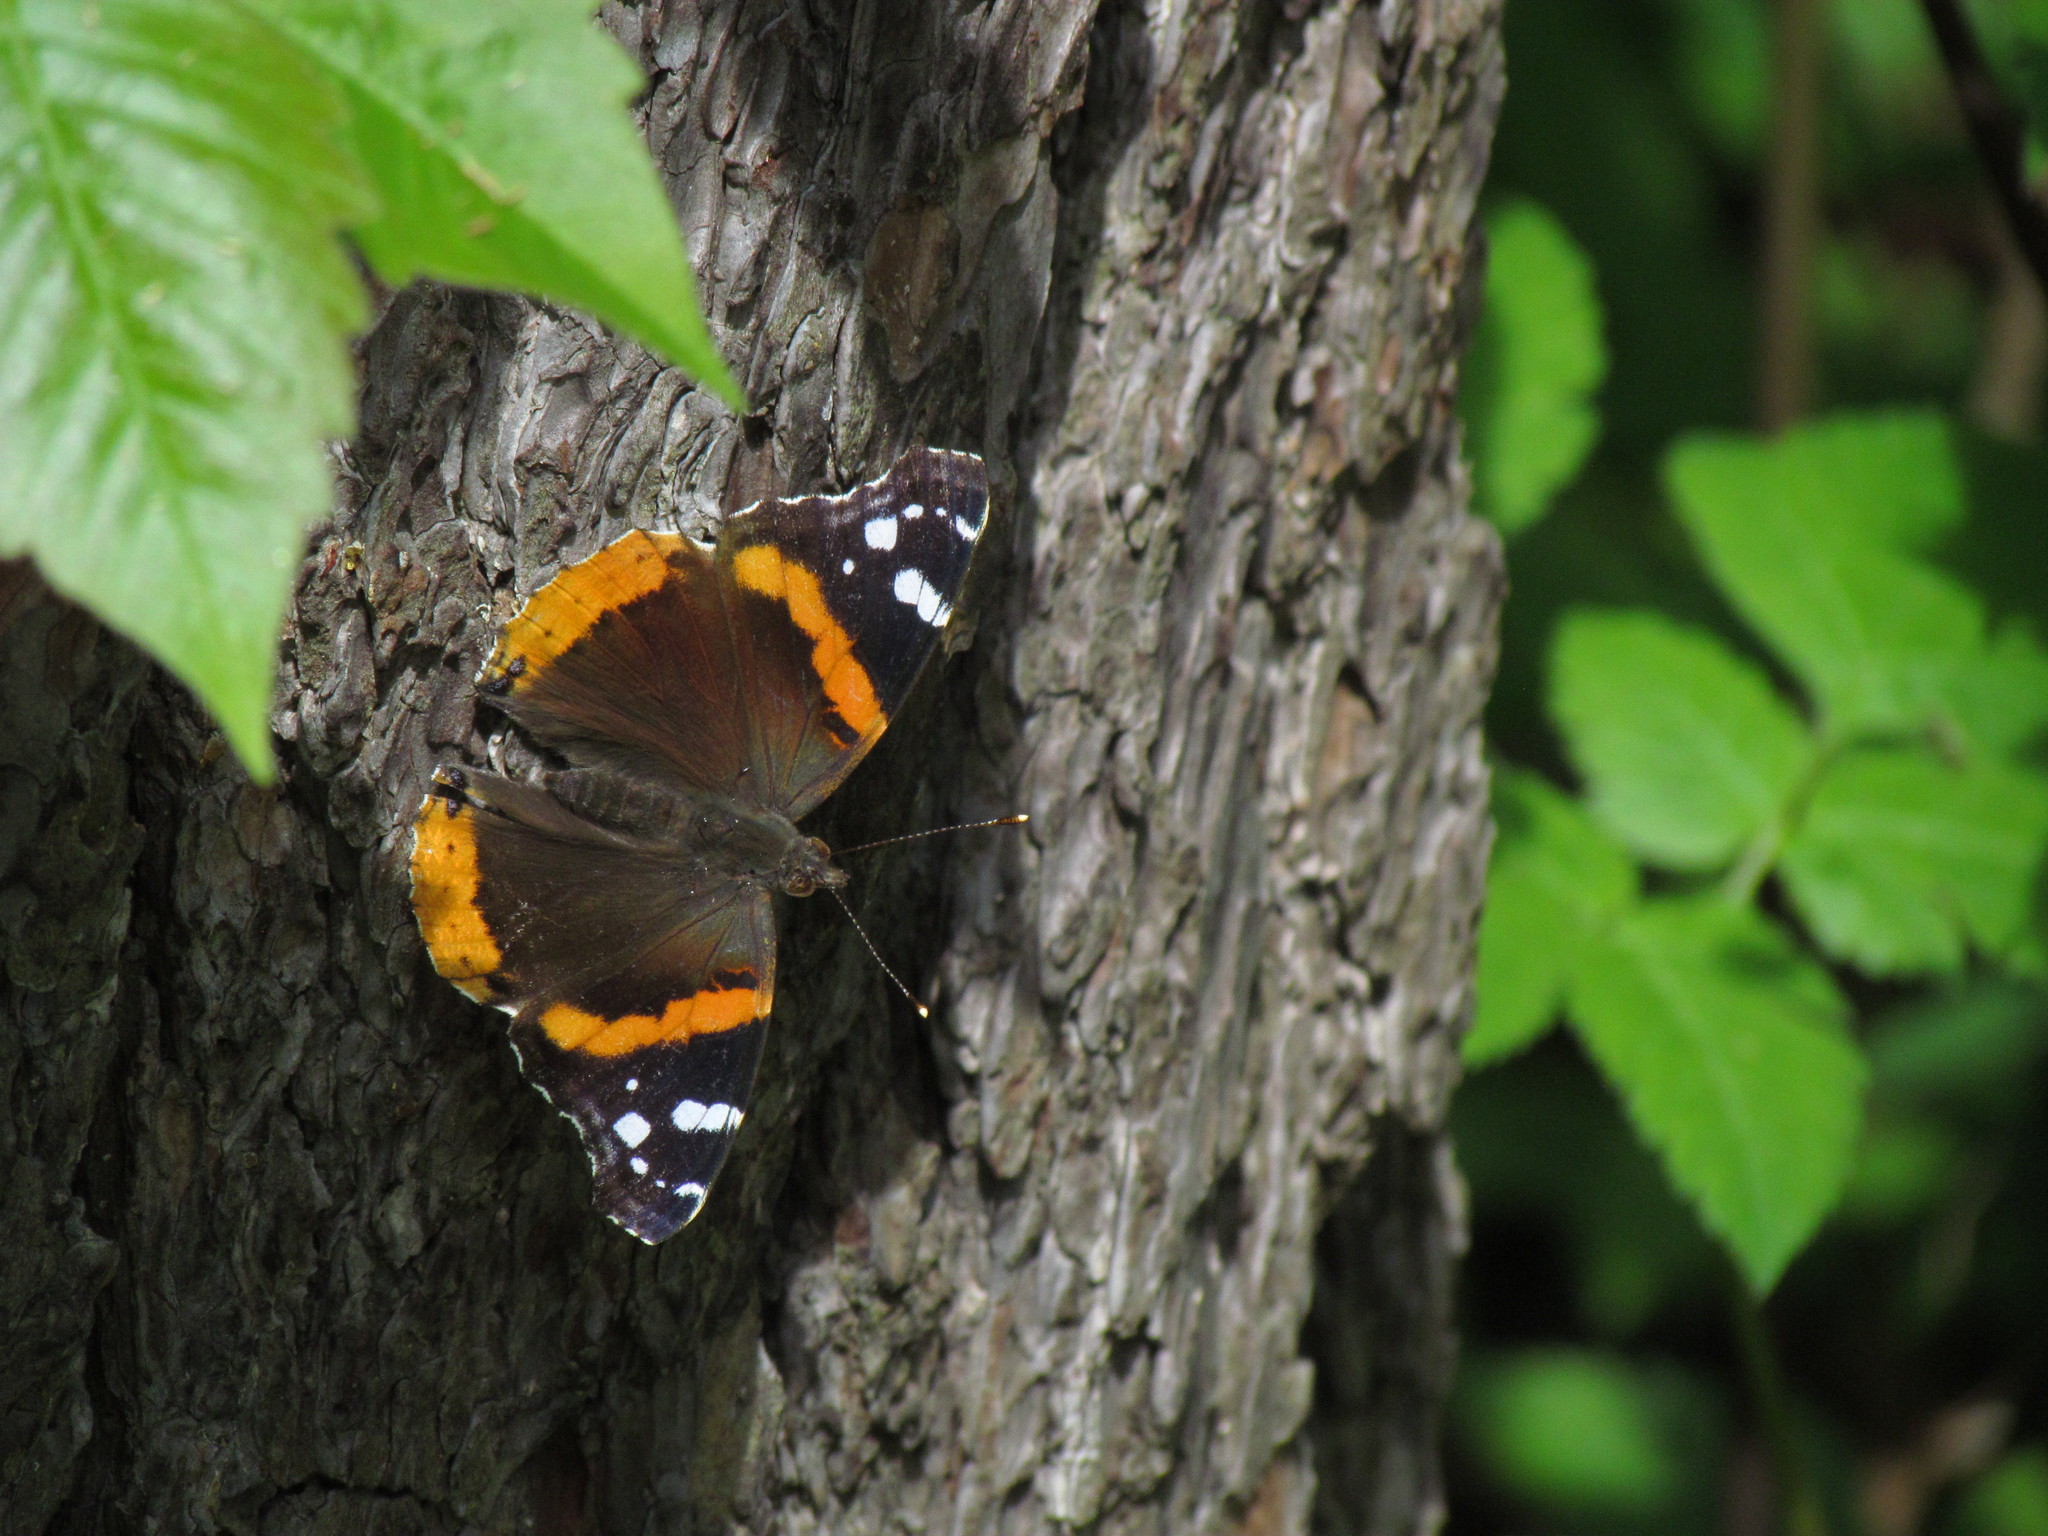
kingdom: Animalia
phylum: Arthropoda
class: Insecta
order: Lepidoptera
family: Nymphalidae
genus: Vanessa
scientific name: Vanessa atalanta
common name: Red admiral
